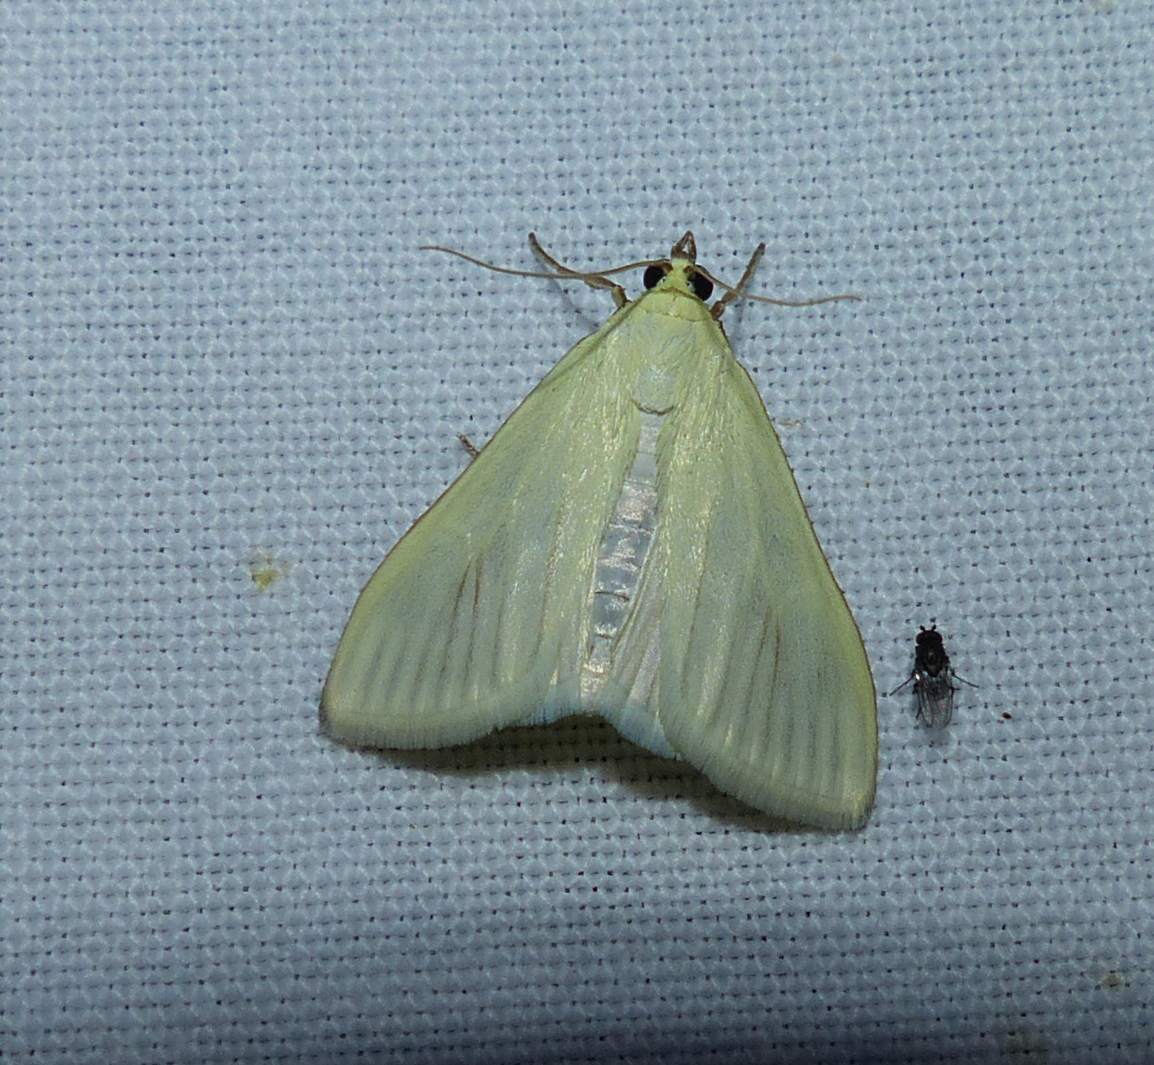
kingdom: Animalia
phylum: Arthropoda
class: Insecta
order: Lepidoptera
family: Crambidae
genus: Sitochroa
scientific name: Sitochroa palealis
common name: Greenish-yellow sitochroa moth
